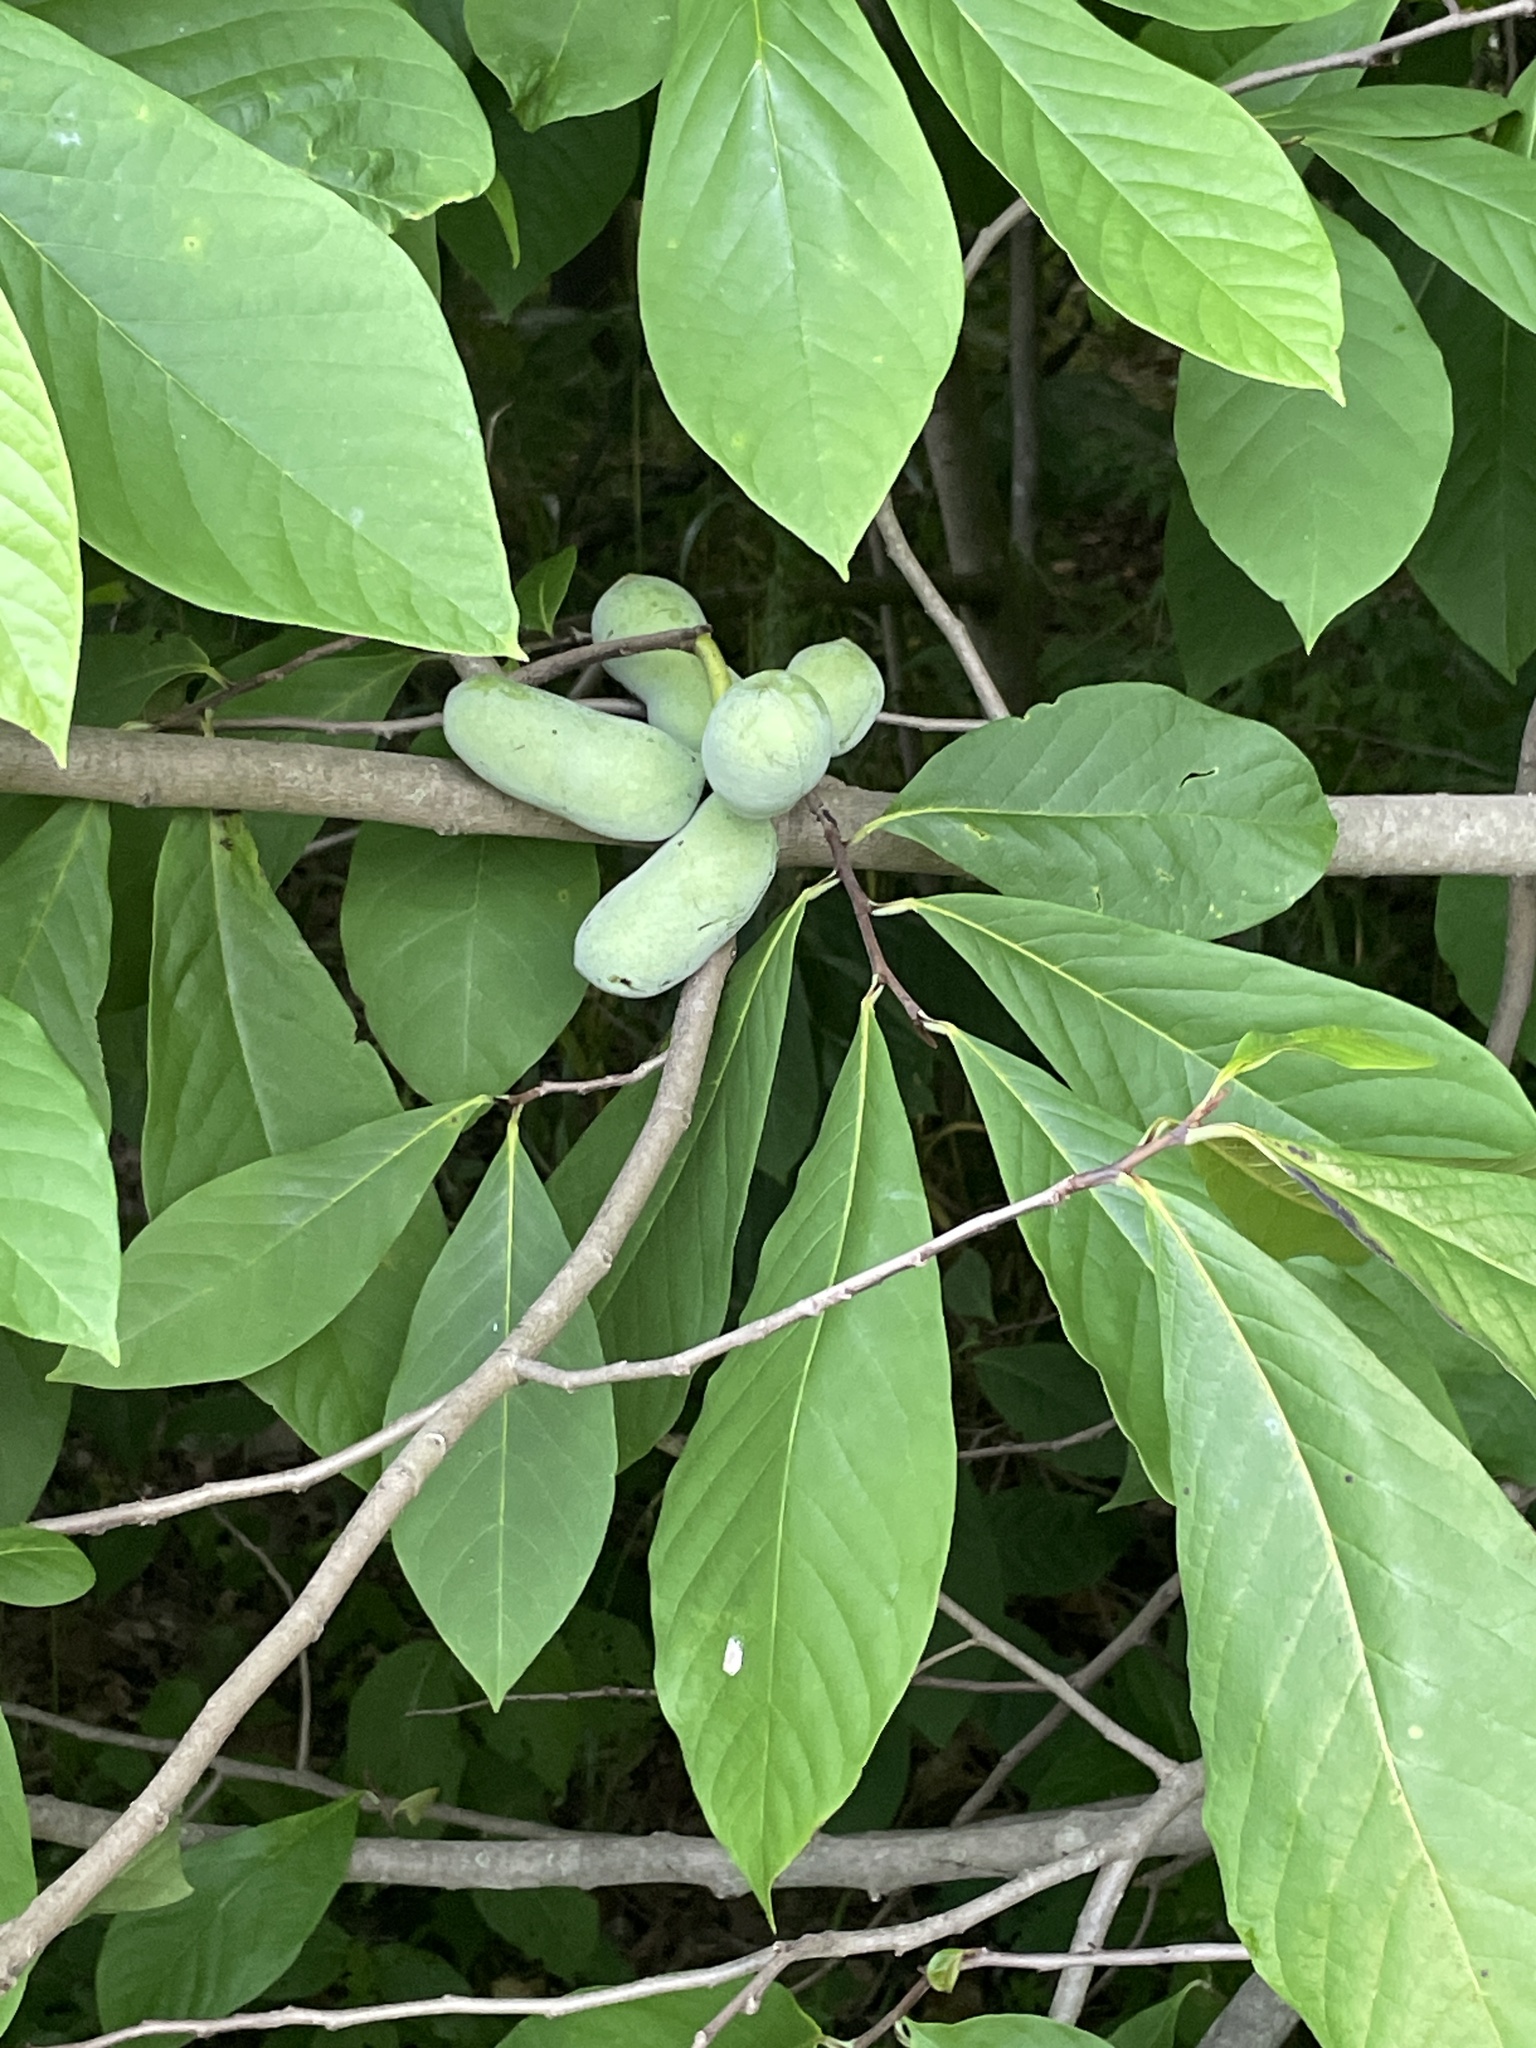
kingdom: Plantae
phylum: Tracheophyta
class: Magnoliopsida
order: Magnoliales
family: Annonaceae
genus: Asimina
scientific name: Asimina triloba
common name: Dog-banana
